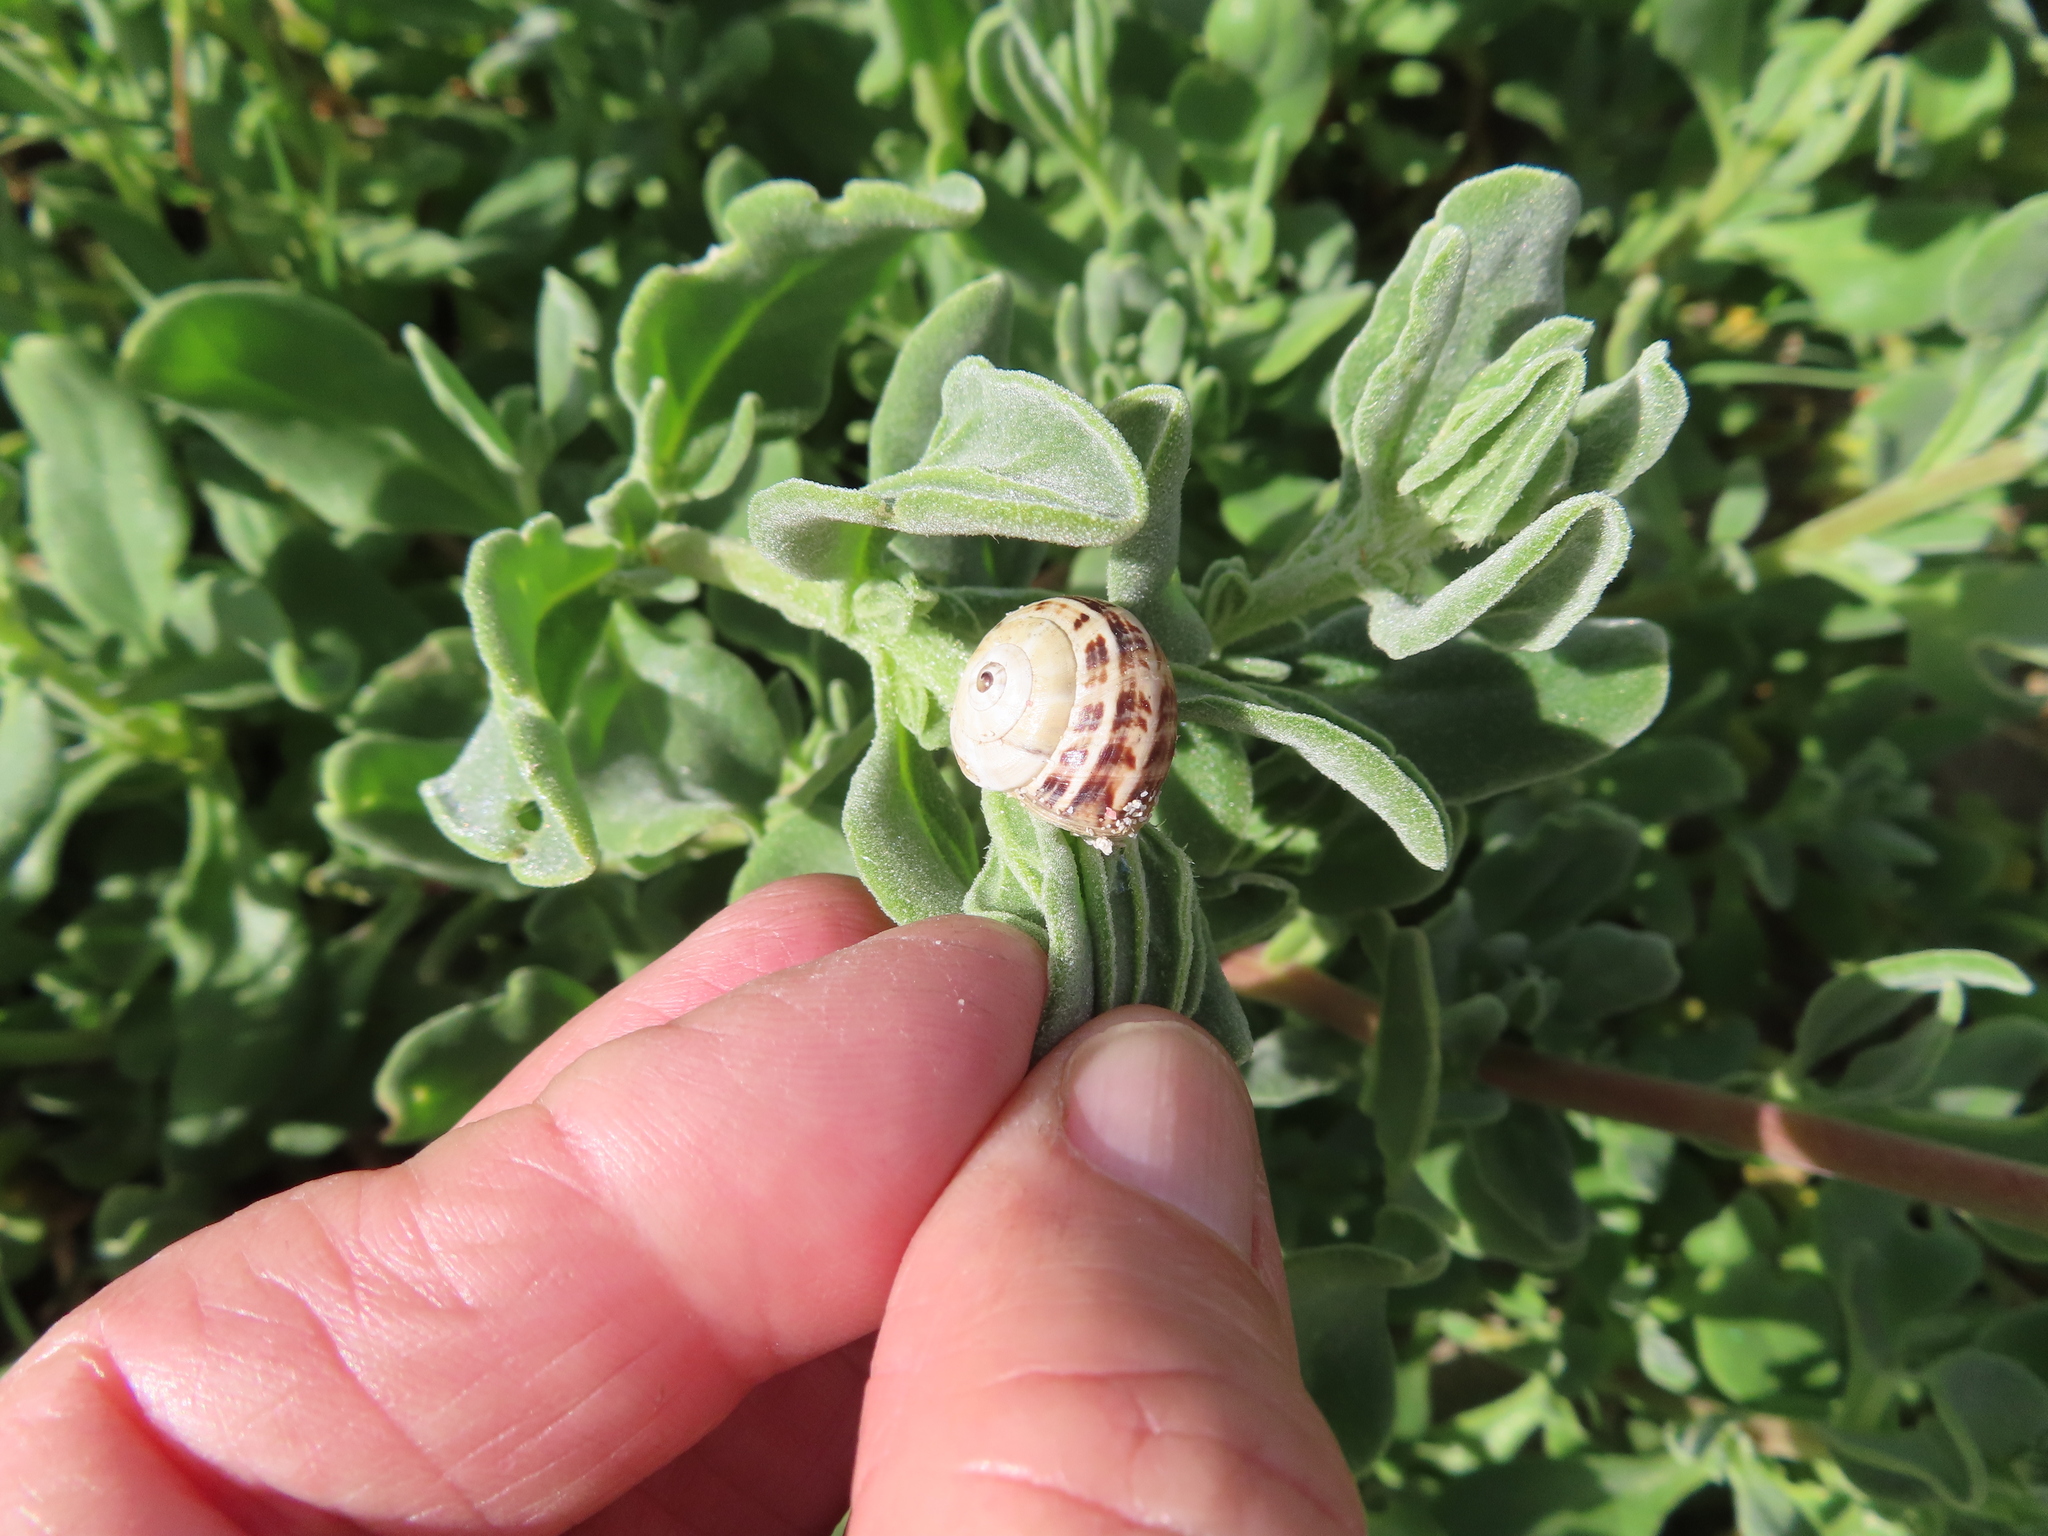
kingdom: Animalia
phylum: Mollusca
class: Gastropoda
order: Stylommatophora
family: Helicidae
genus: Theba
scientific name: Theba pisana
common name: White snail
